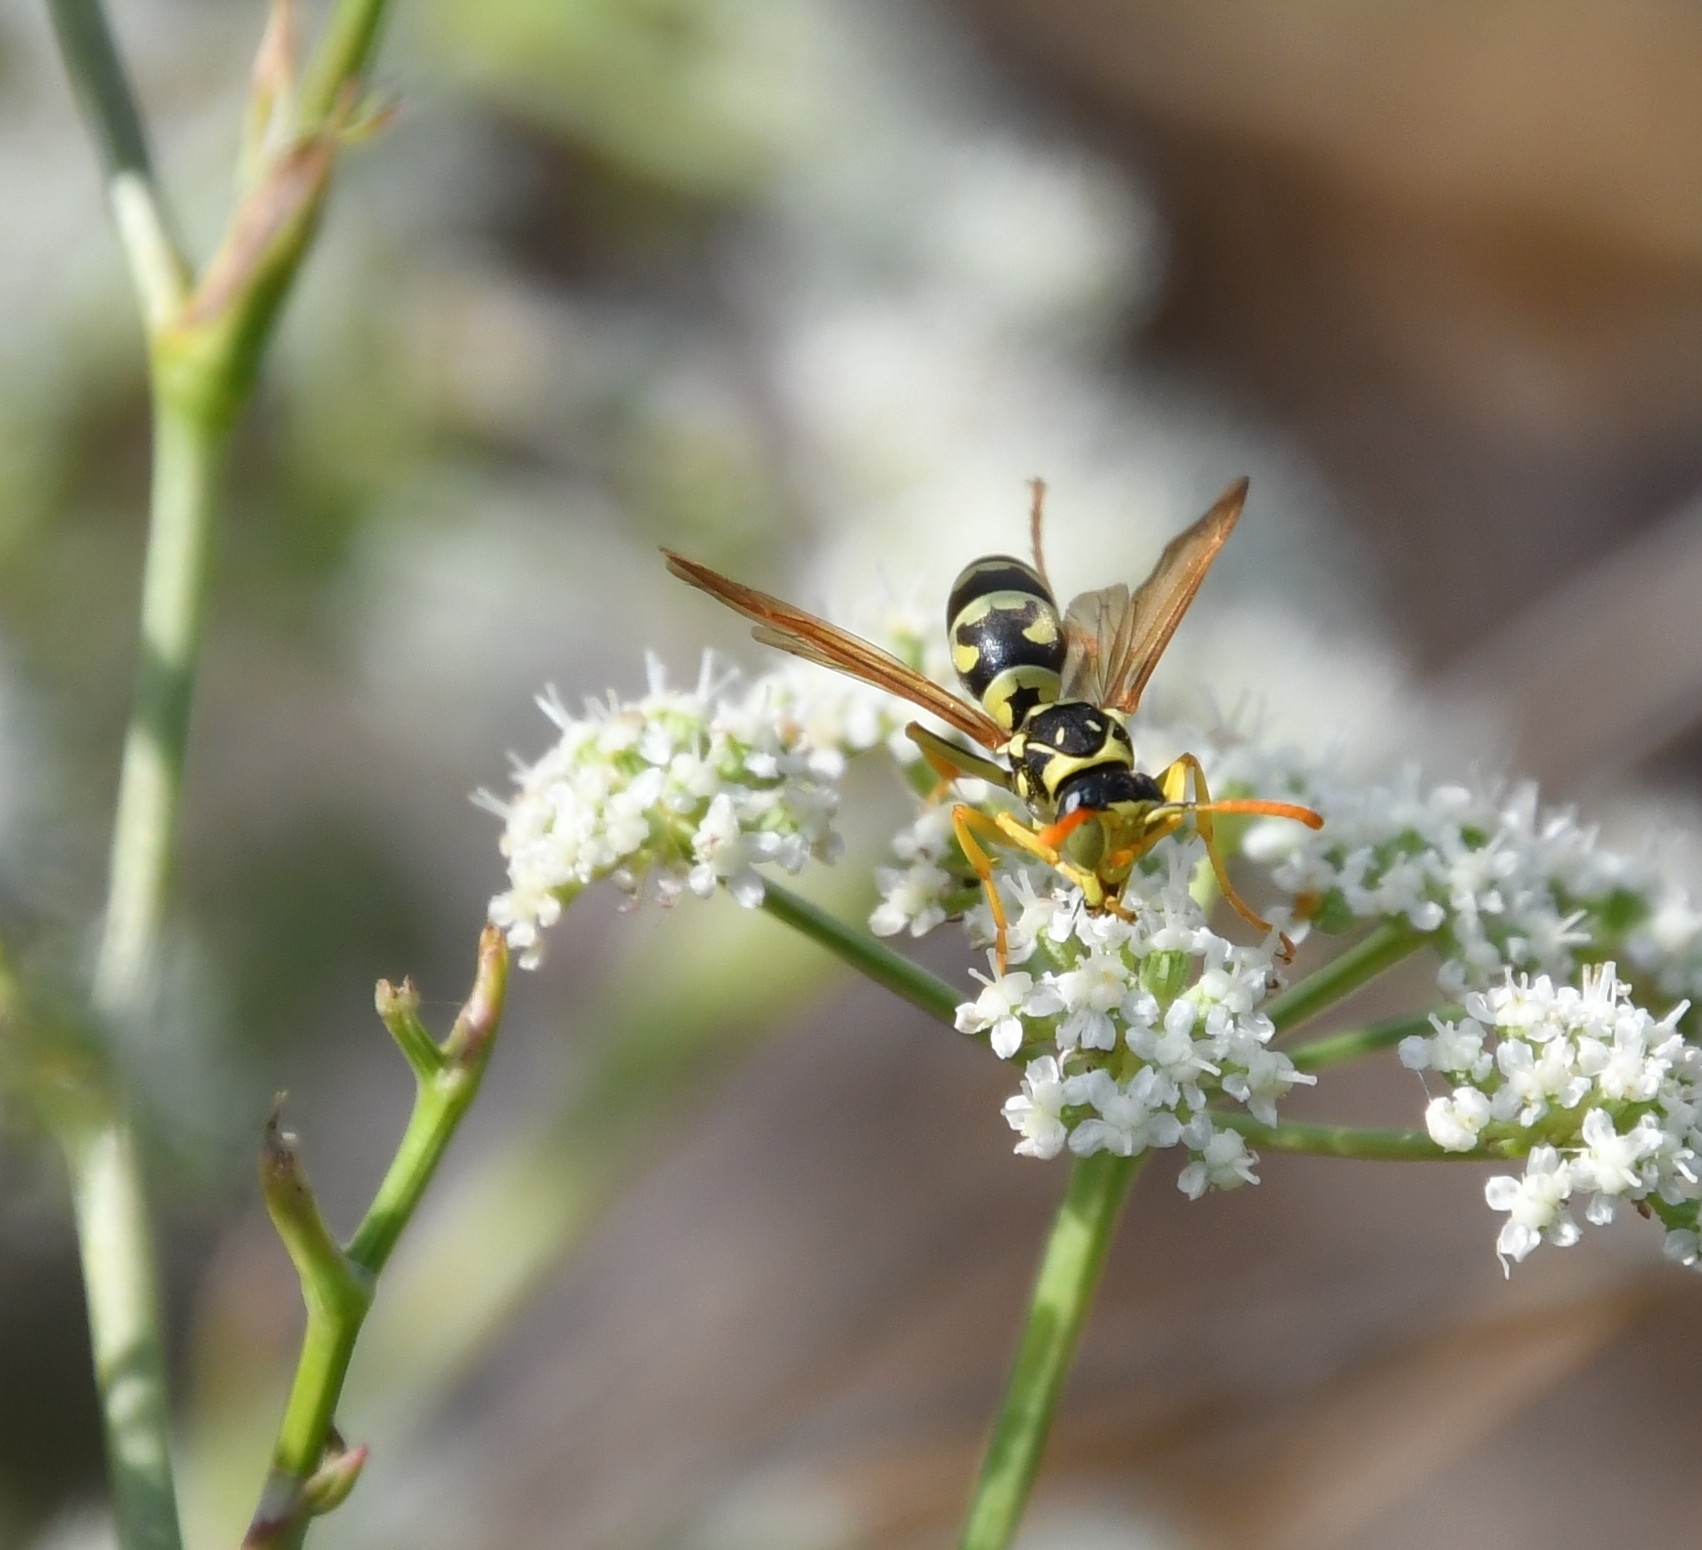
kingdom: Animalia
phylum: Arthropoda
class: Insecta
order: Hymenoptera
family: Eumenidae
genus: Polistes
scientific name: Polistes gallicus
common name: Paper wasp
